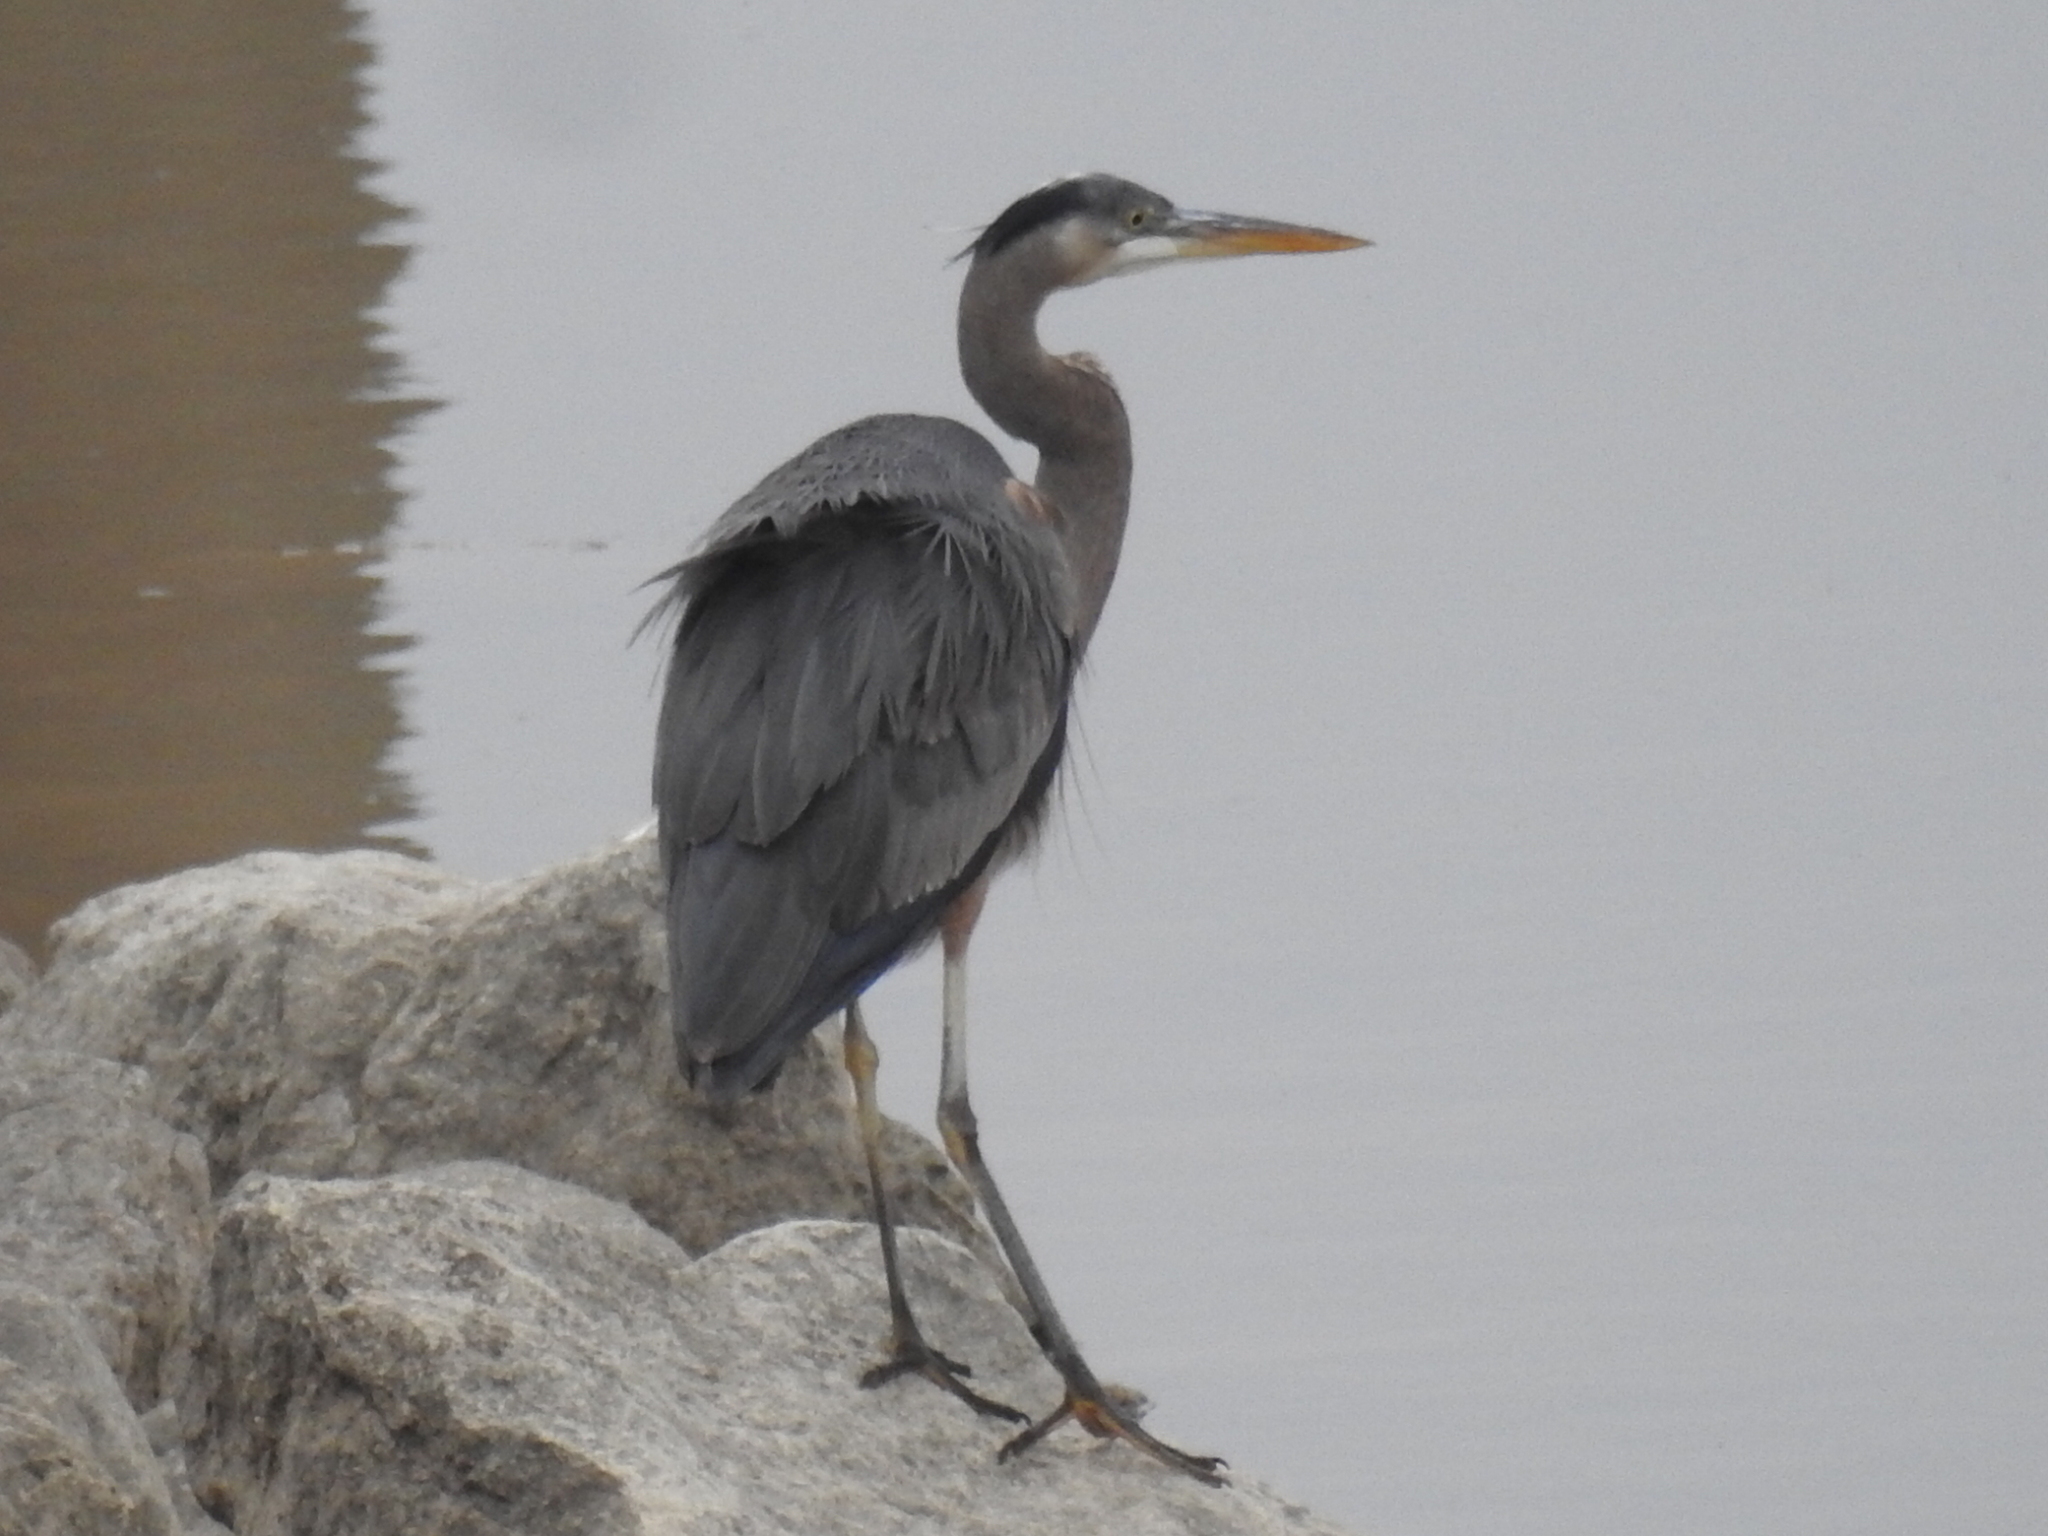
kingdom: Animalia
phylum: Chordata
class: Aves
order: Pelecaniformes
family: Ardeidae
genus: Ardea
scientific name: Ardea herodias
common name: Great blue heron
